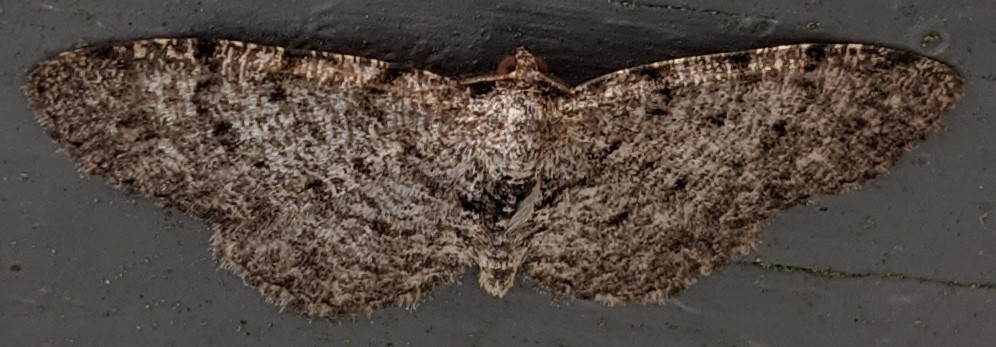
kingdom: Animalia
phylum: Arthropoda
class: Insecta
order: Lepidoptera
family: Geometridae
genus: Aethalura
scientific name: Aethalura intertexta
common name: Four-barred gray
